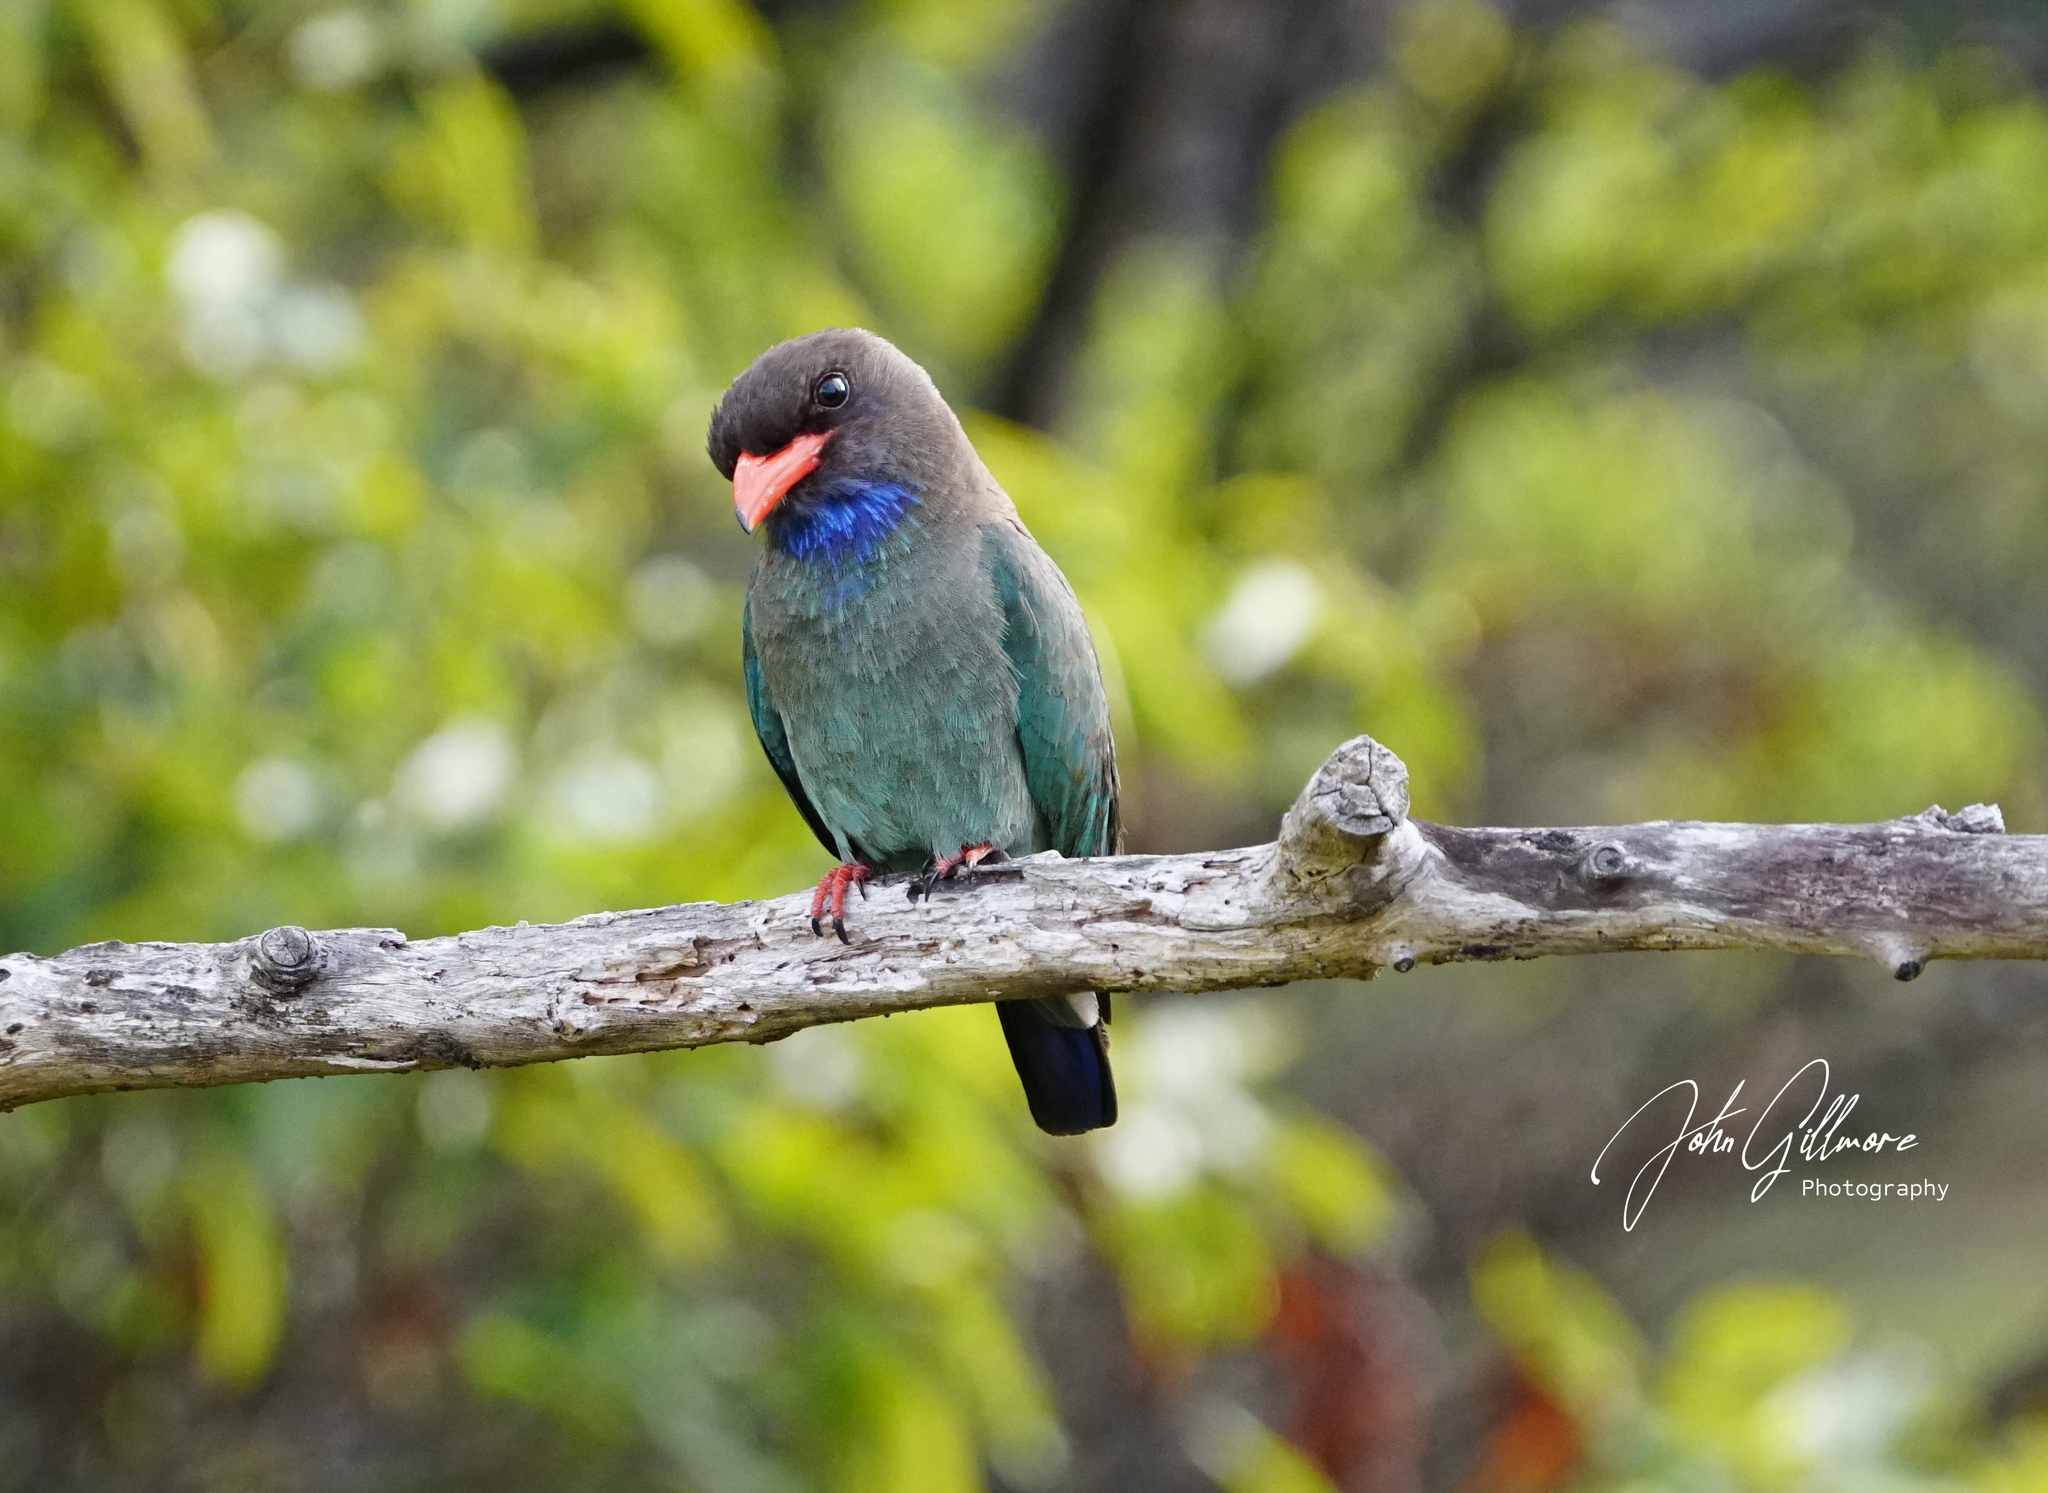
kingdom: Animalia
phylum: Chordata
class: Aves
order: Coraciiformes
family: Coraciidae
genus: Eurystomus
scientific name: Eurystomus orientalis
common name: Oriental dollarbird
